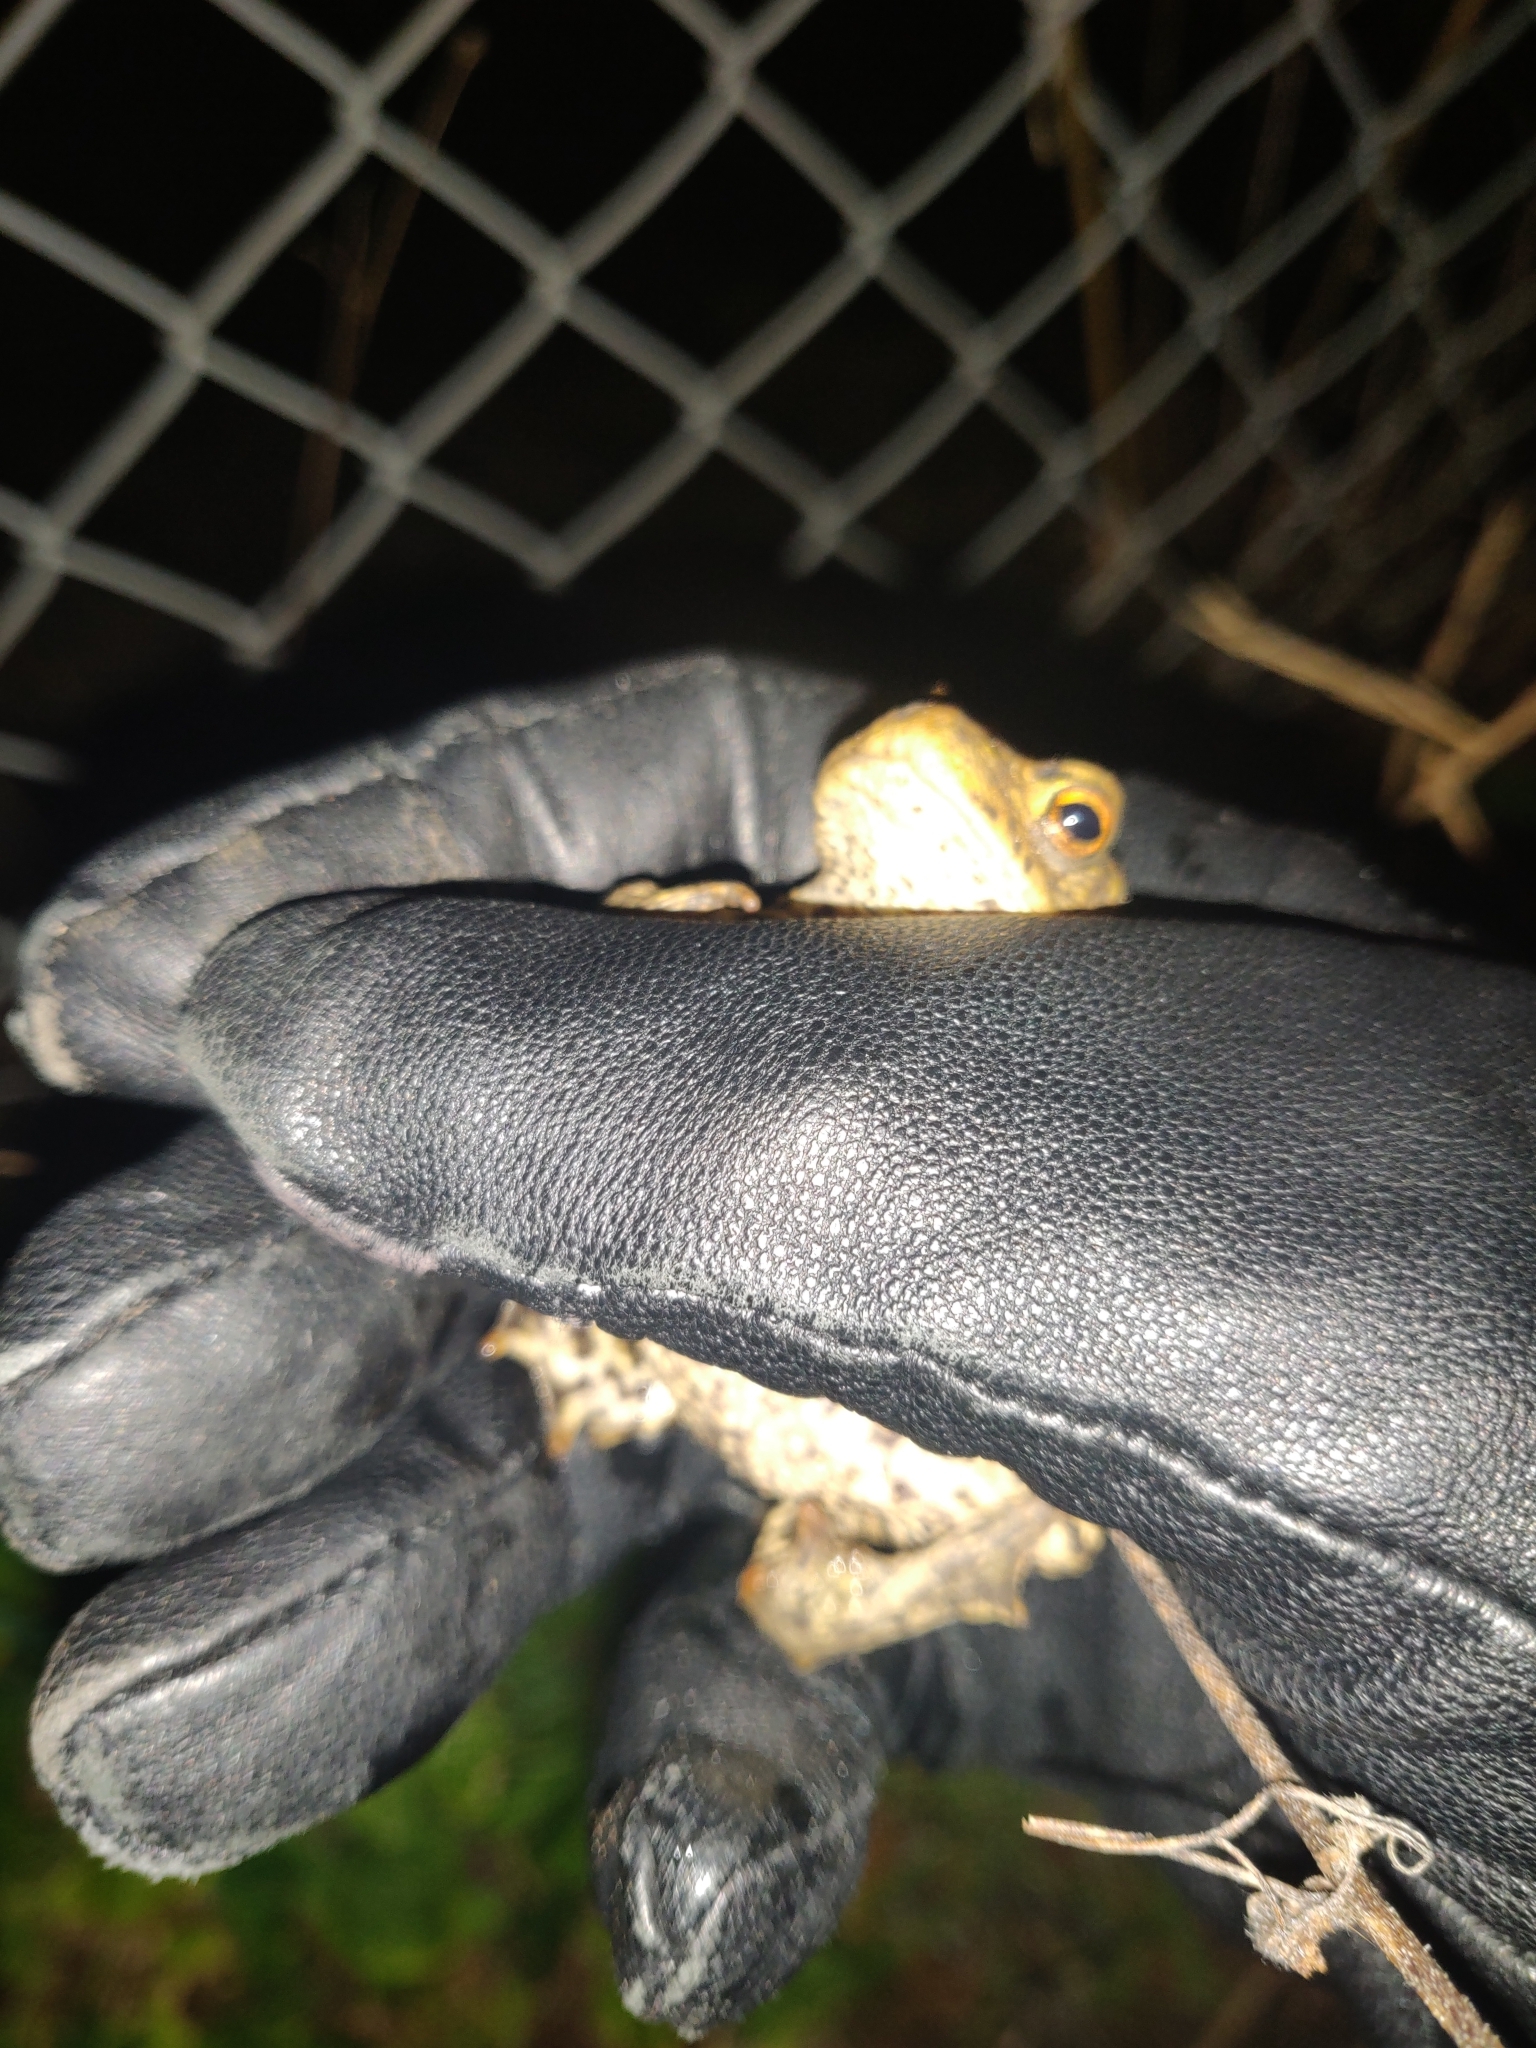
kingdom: Animalia
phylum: Chordata
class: Amphibia
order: Anura
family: Bufonidae
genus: Bufo
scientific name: Bufo bufo
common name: Common toad
